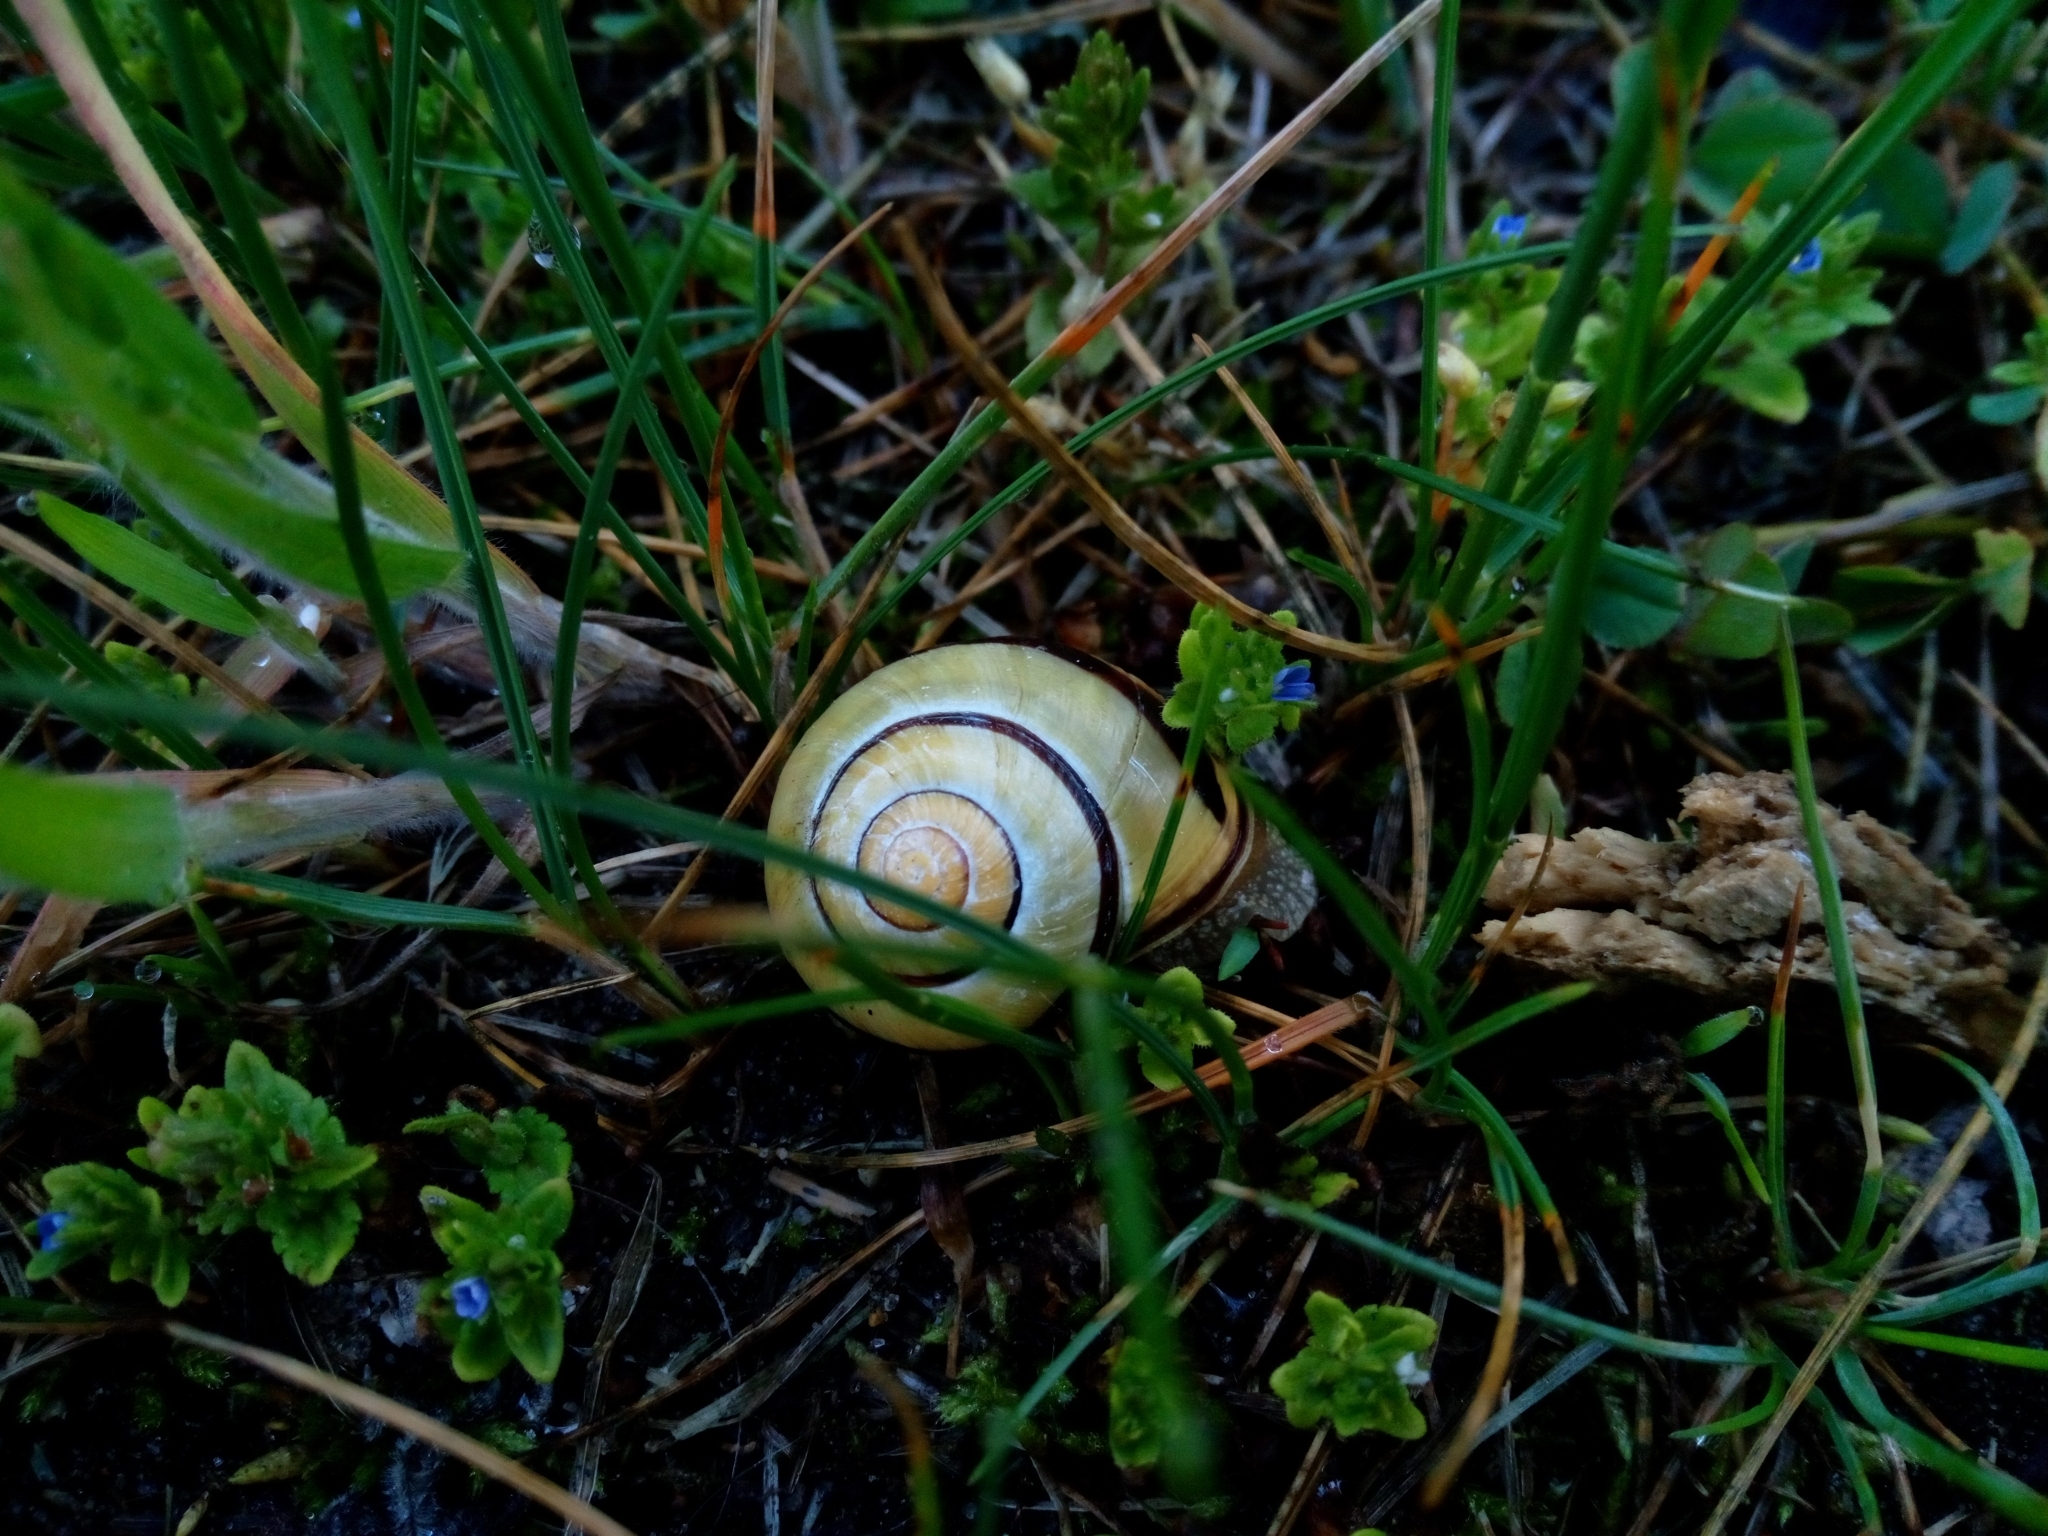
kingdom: Animalia
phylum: Mollusca
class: Gastropoda
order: Stylommatophora
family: Helicidae
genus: Cepaea
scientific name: Cepaea nemoralis
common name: Grovesnail
